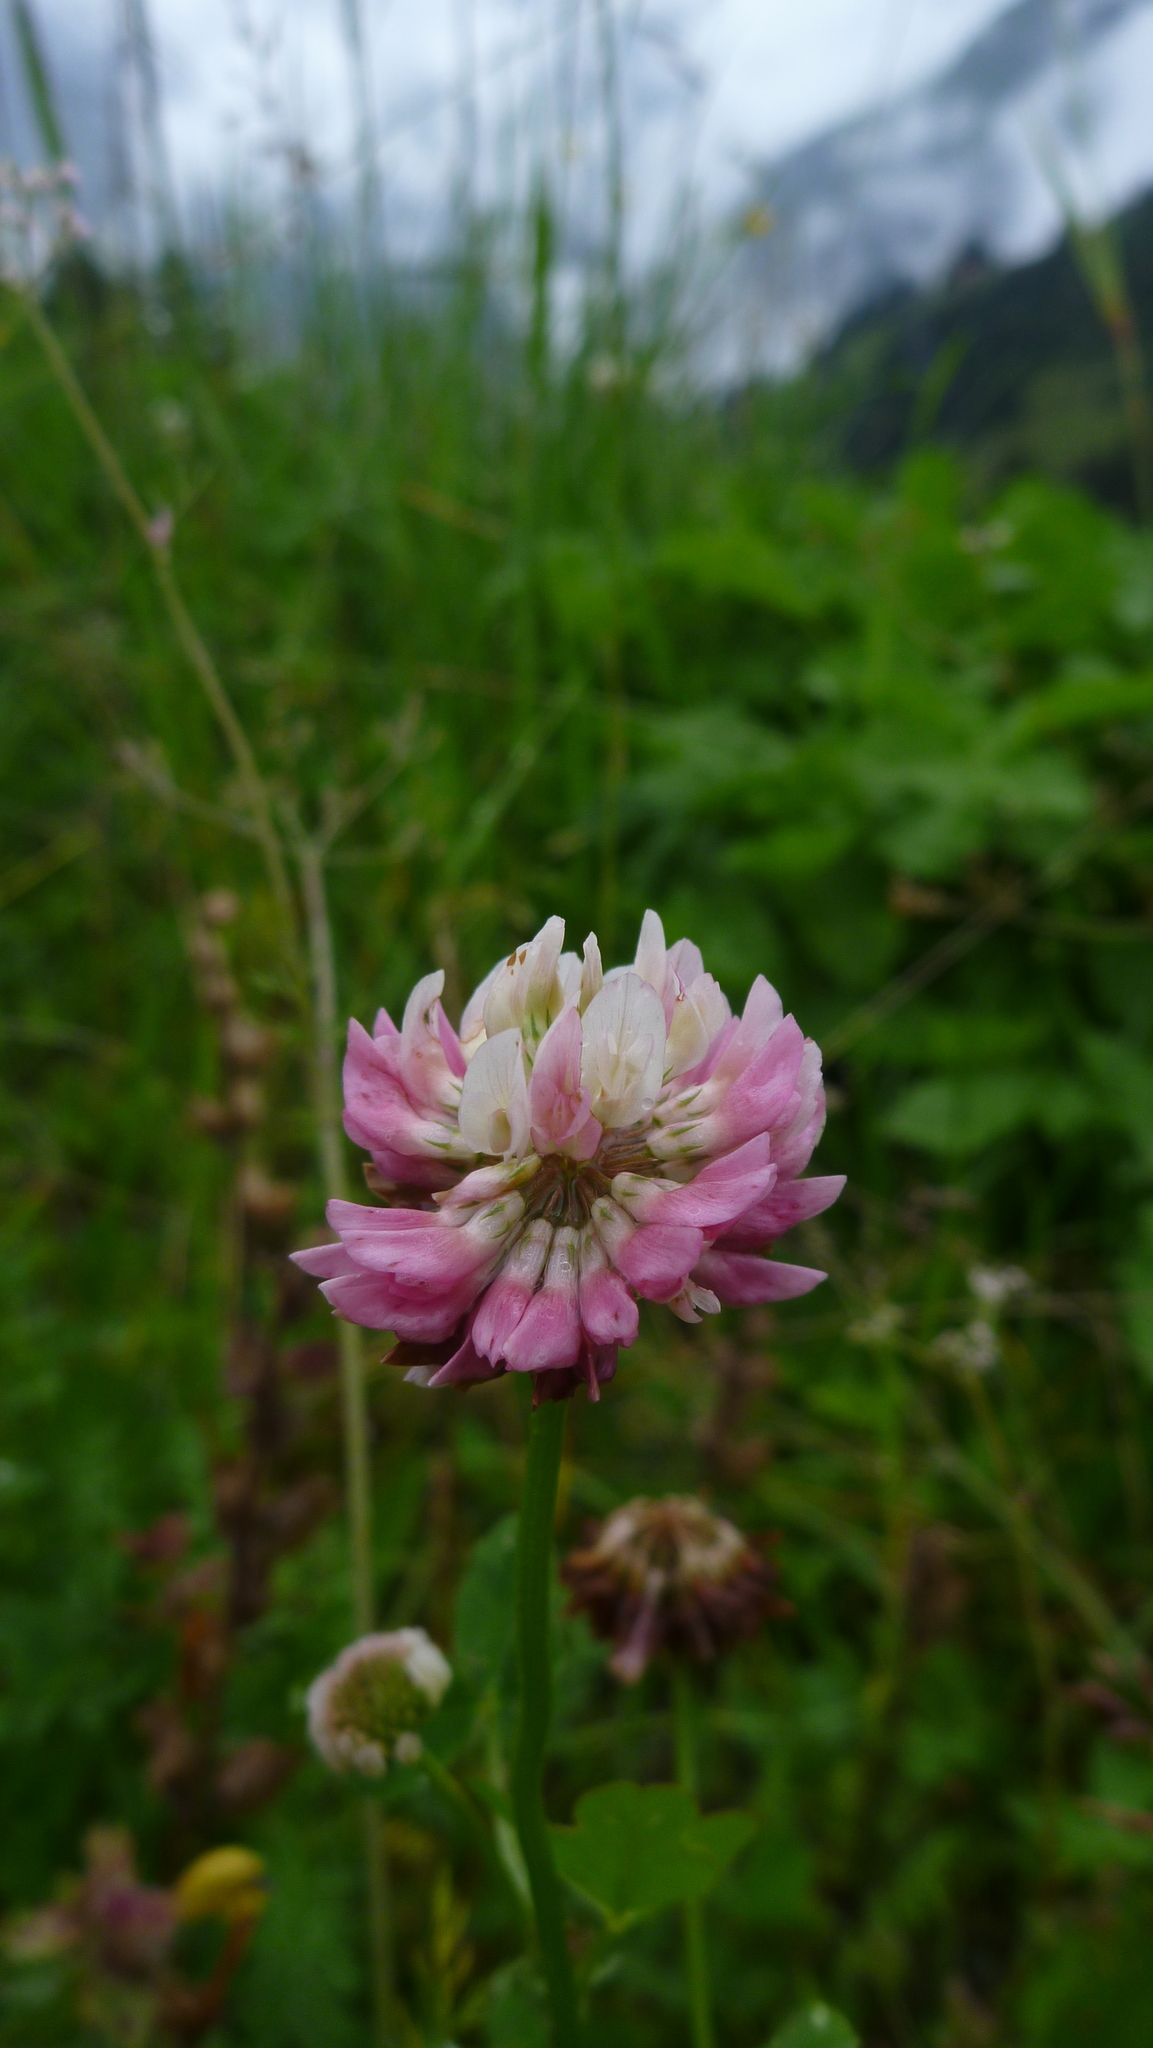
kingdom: Plantae
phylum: Tracheophyta
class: Magnoliopsida
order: Fabales
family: Fabaceae
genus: Trifolium
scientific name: Trifolium hybridum
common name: Alsike clover
